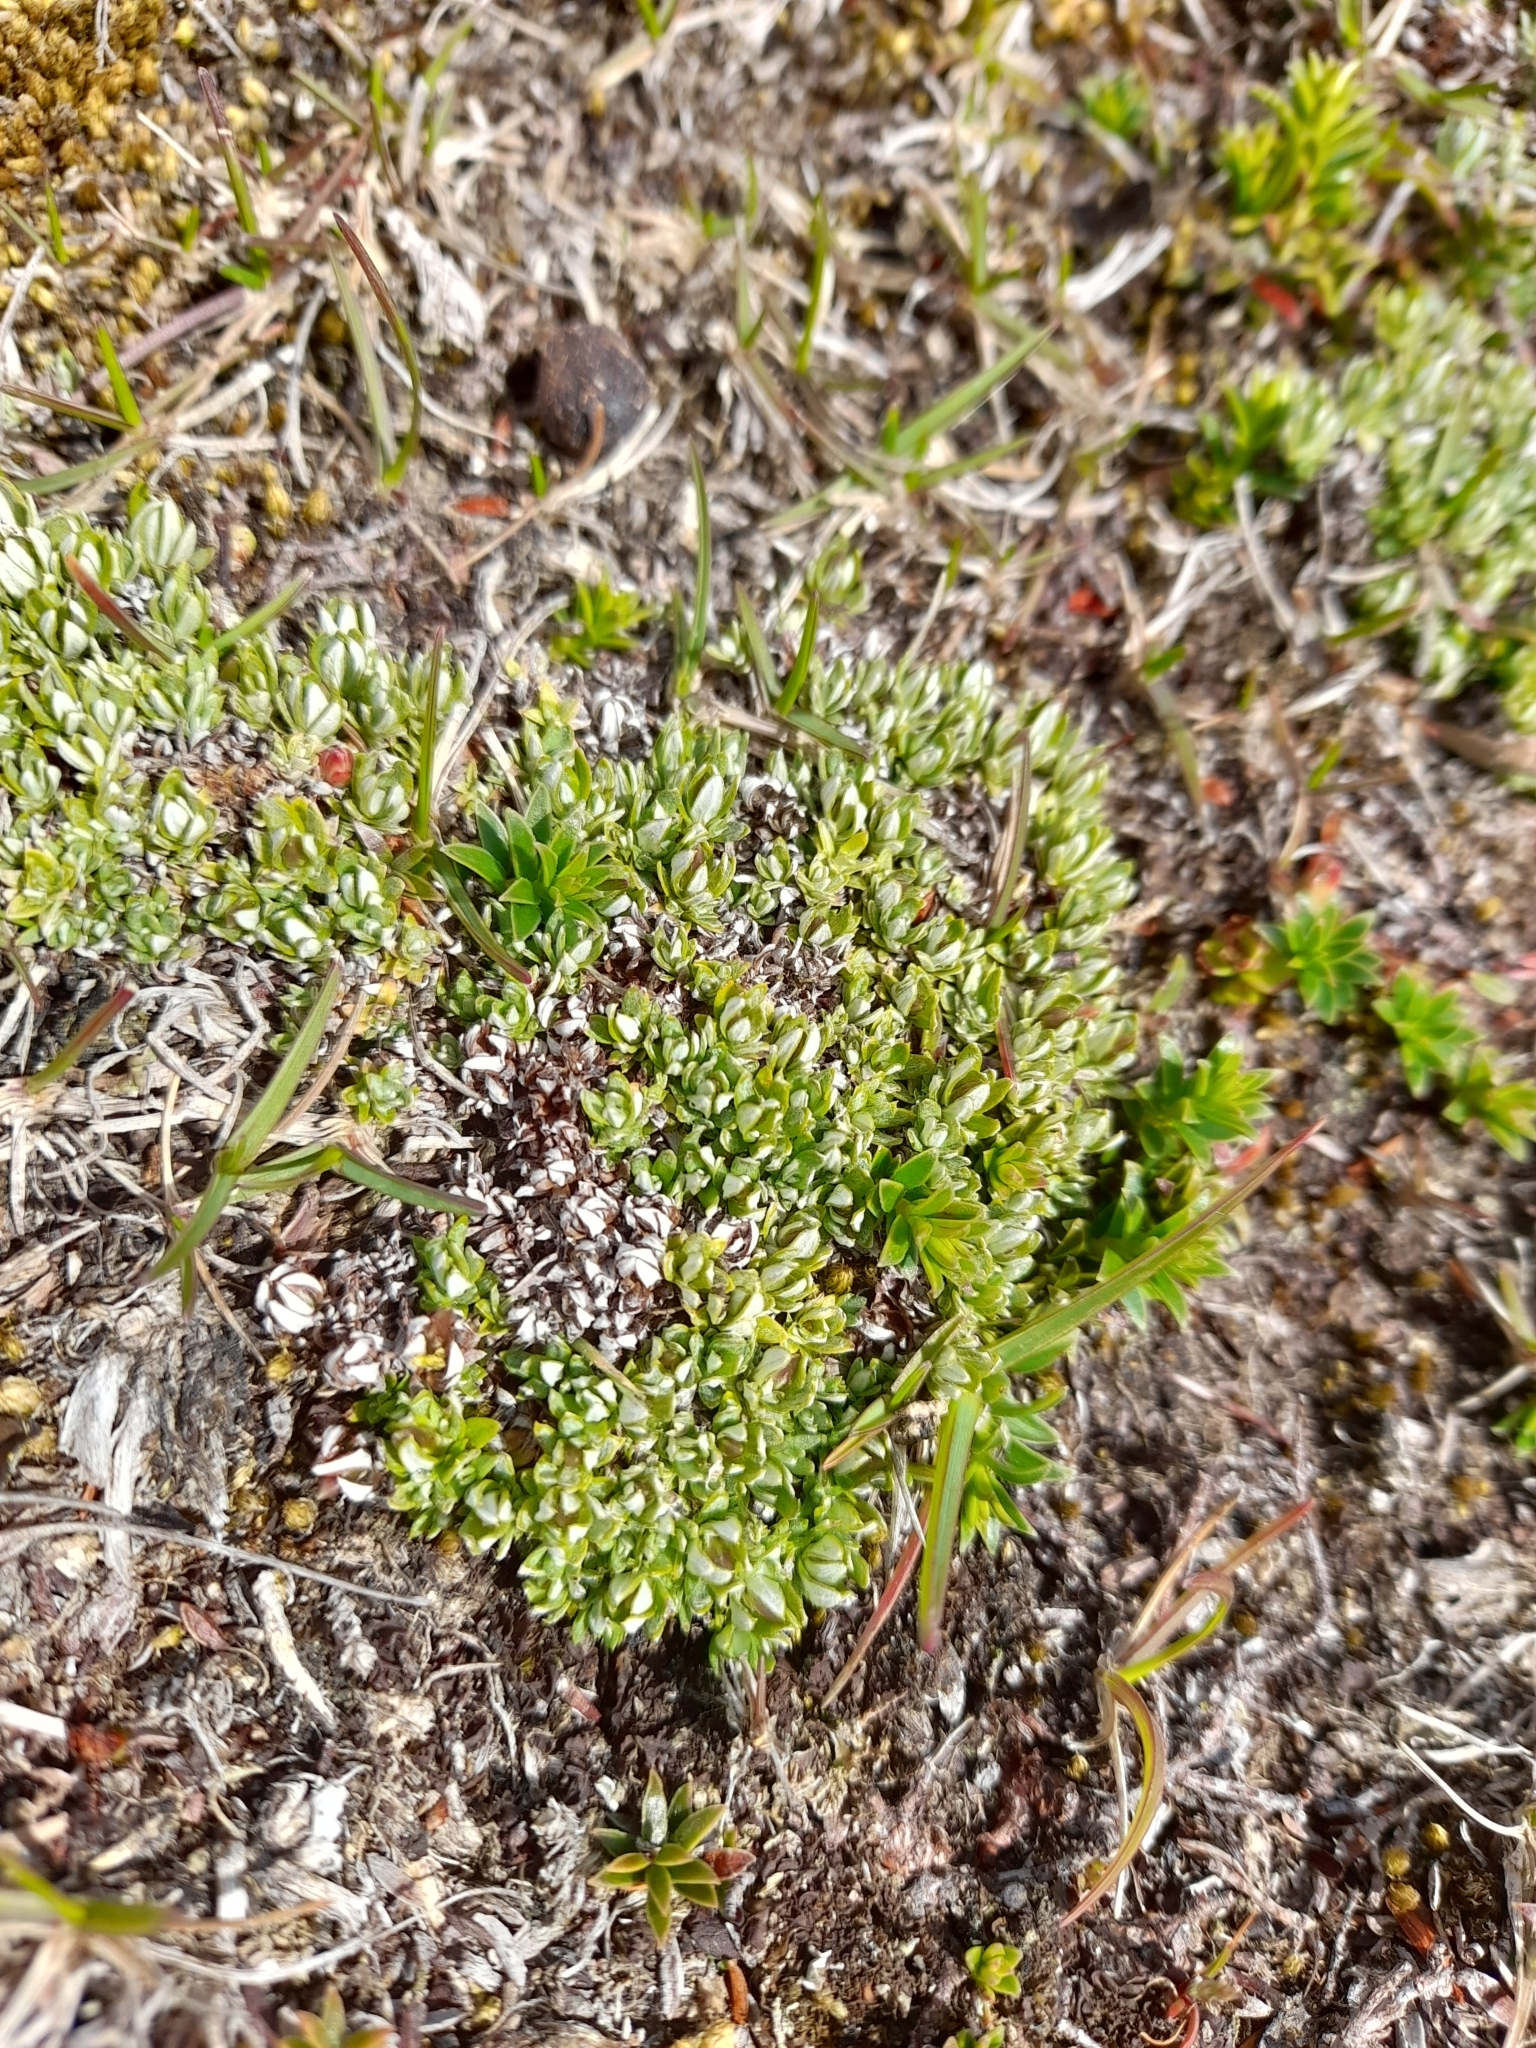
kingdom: Plantae
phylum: Tracheophyta
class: Magnoliopsida
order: Asterales
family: Asteraceae
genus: Chevreulia
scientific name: Chevreulia lycopodioides
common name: Clubmoss cudweed
